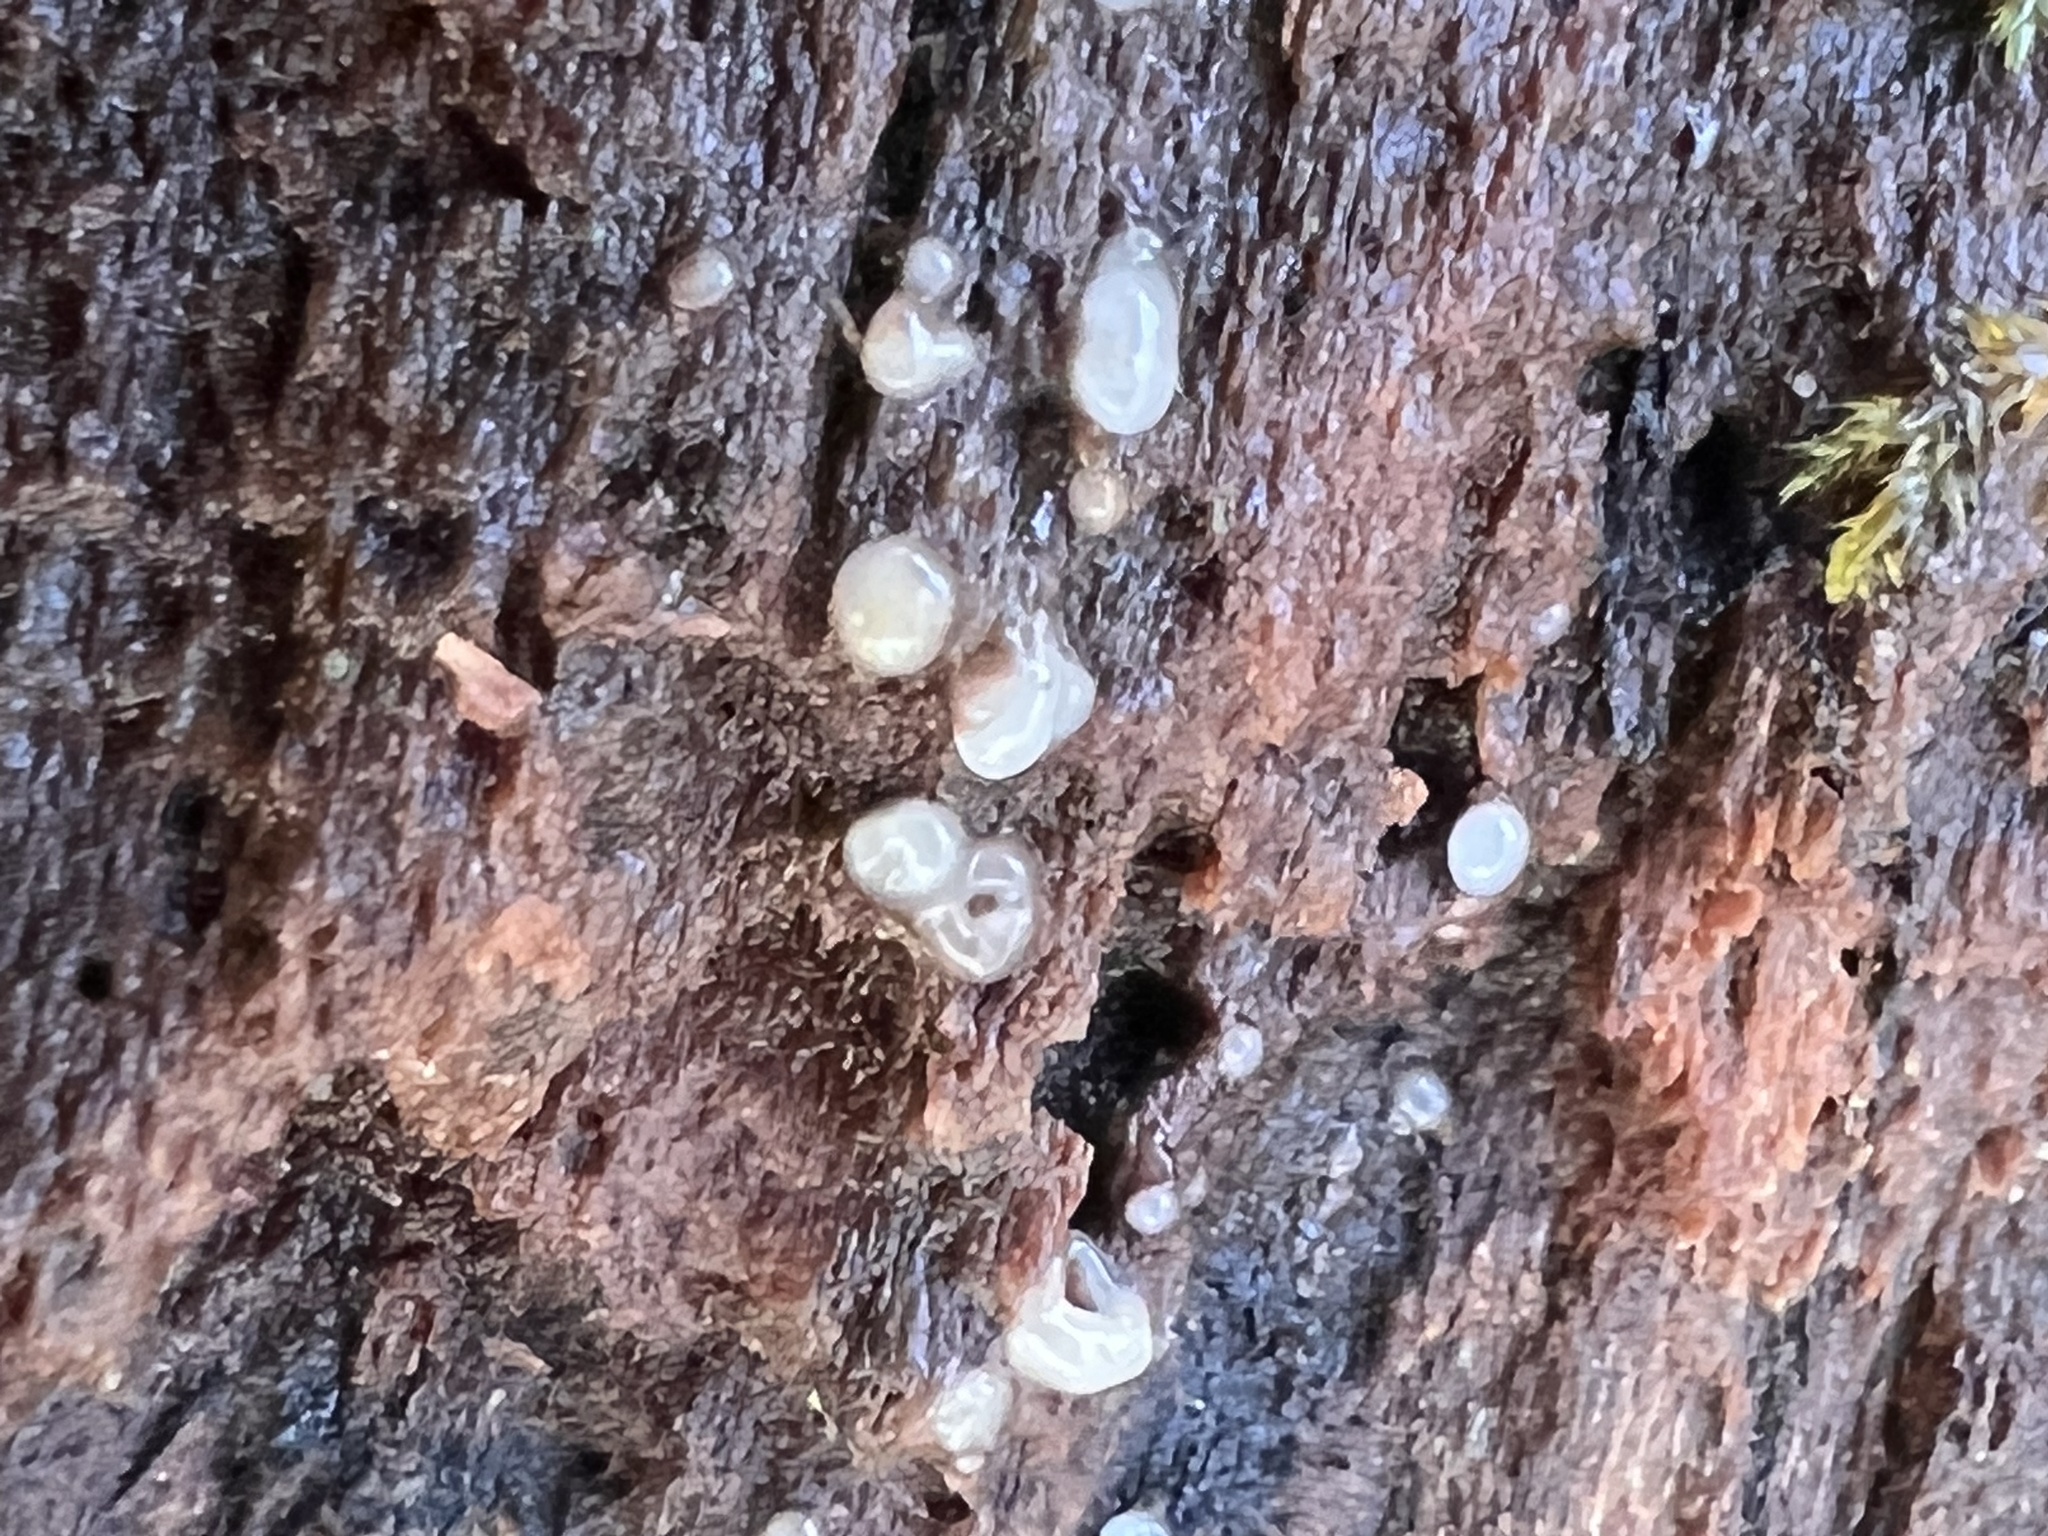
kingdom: Fungi
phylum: Basidiomycota
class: Atractiellomycetes
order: Atractiellales
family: Phleogenaceae
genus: Helicogloea
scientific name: Helicogloea compressa
